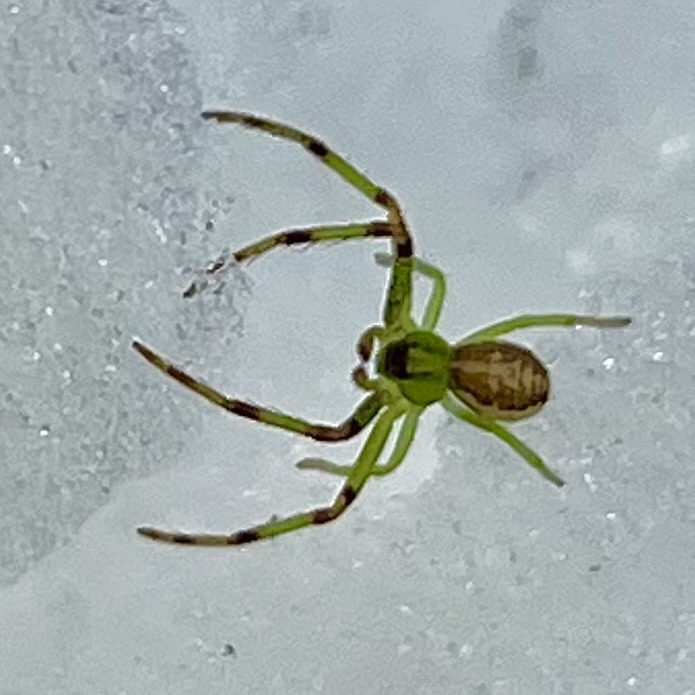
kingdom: Animalia
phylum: Arthropoda
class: Arachnida
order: Araneae
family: Thomisidae
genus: Diaea
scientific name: Diaea dorsata
